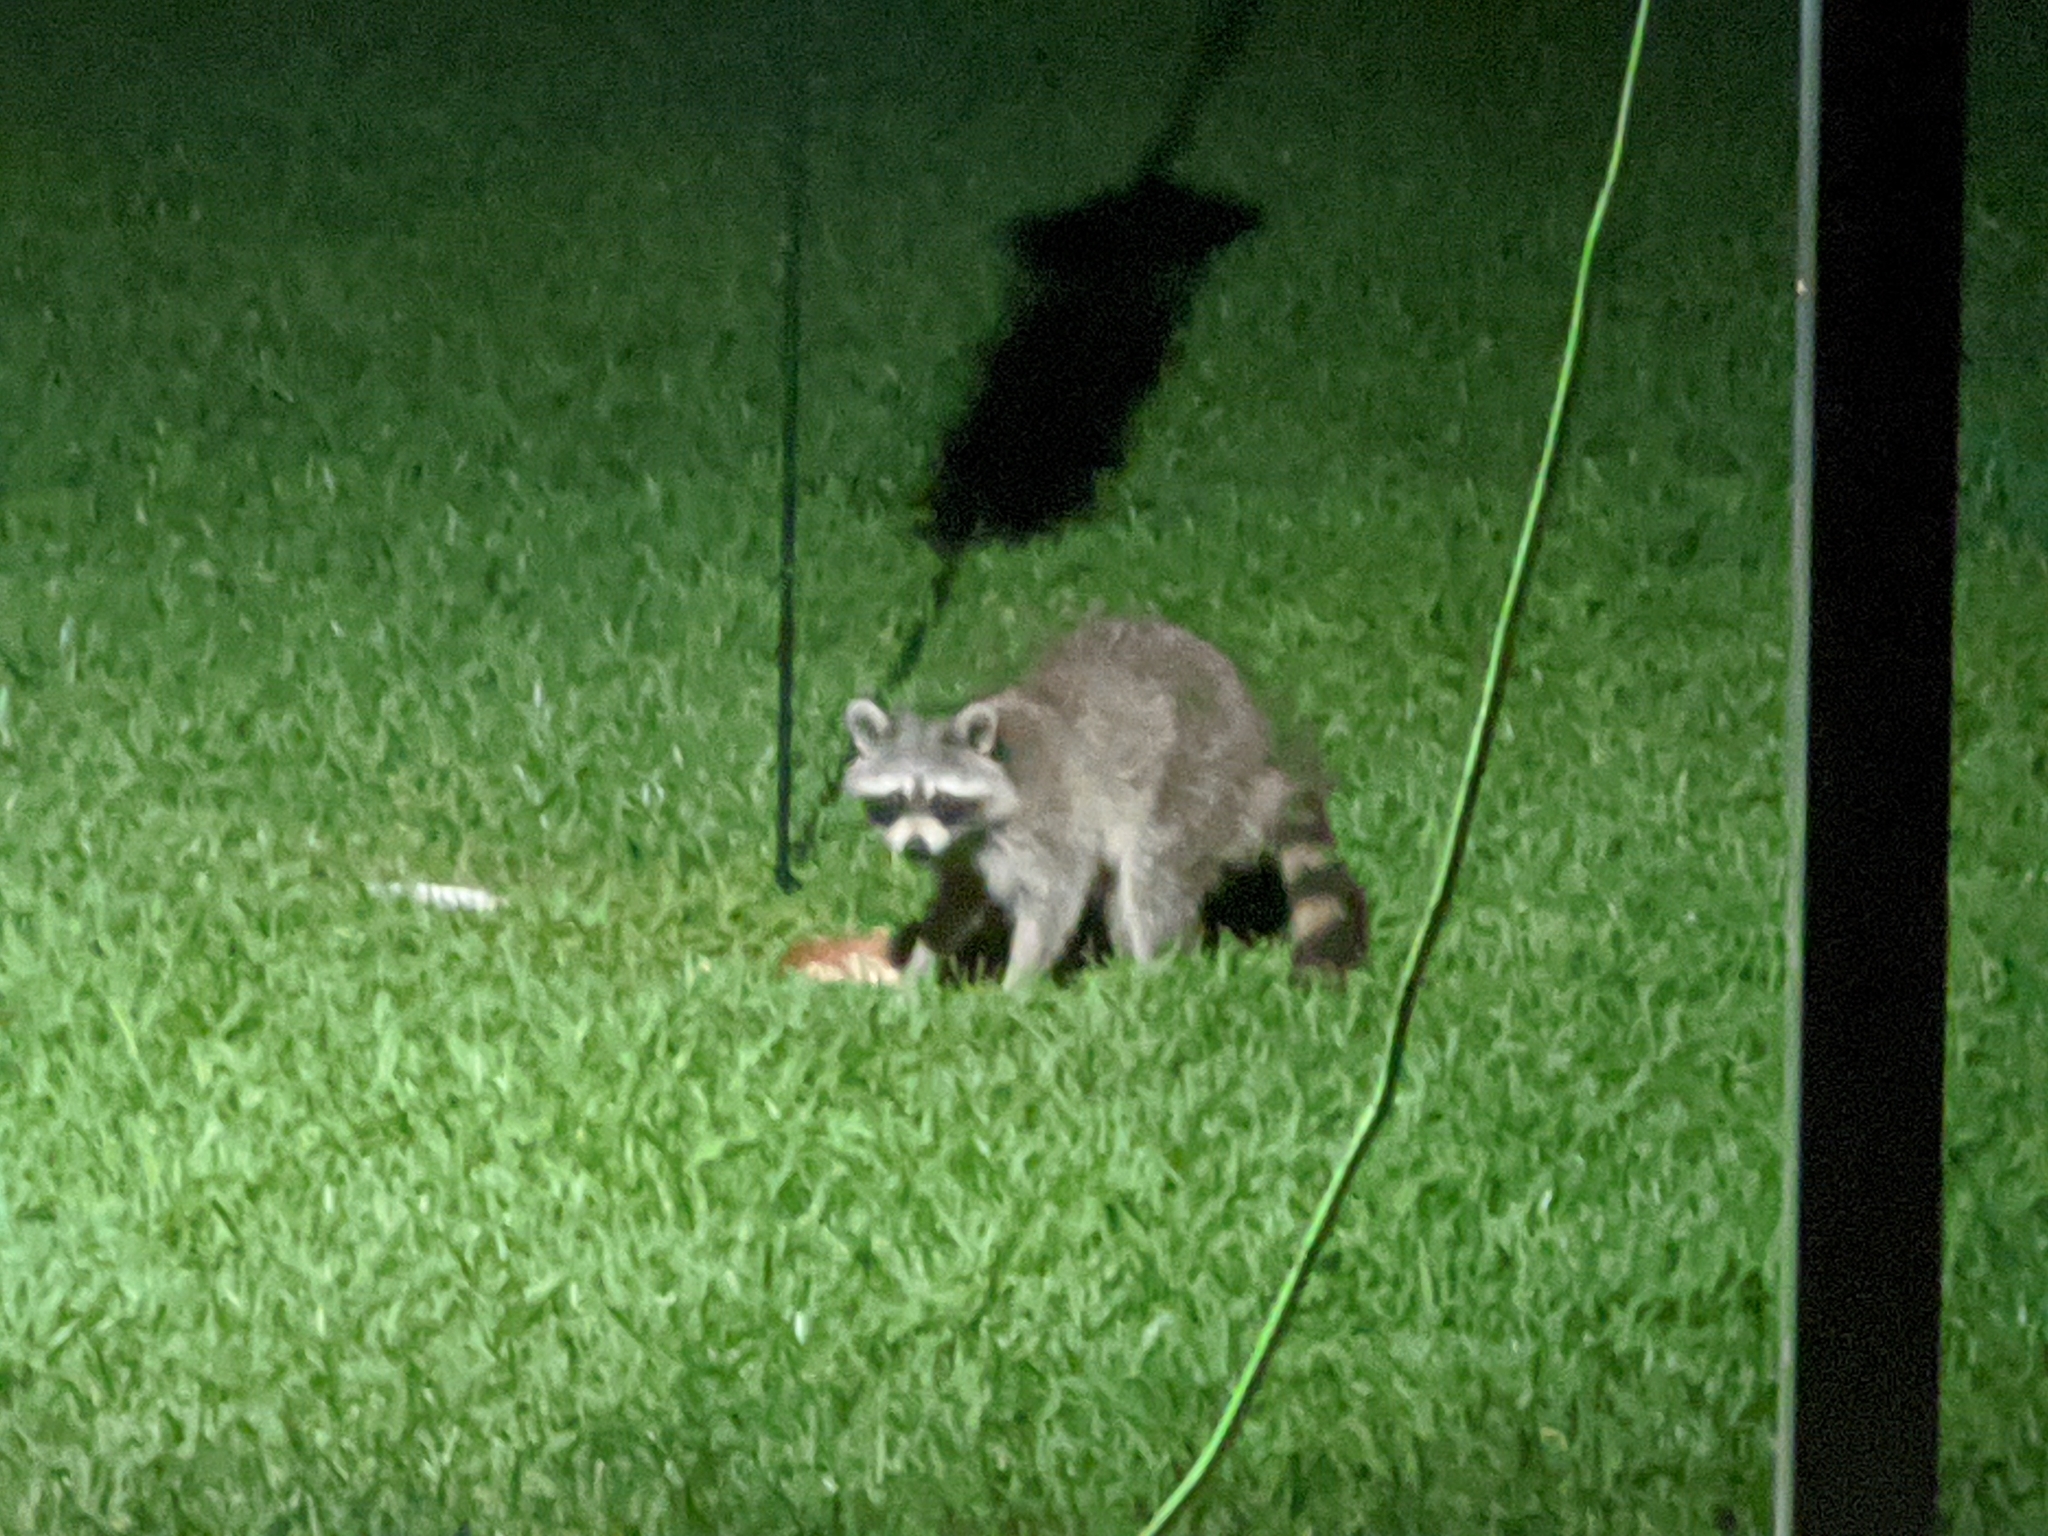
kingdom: Animalia
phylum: Chordata
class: Mammalia
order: Carnivora
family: Procyonidae
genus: Procyon
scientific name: Procyon lotor
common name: Raccoon
